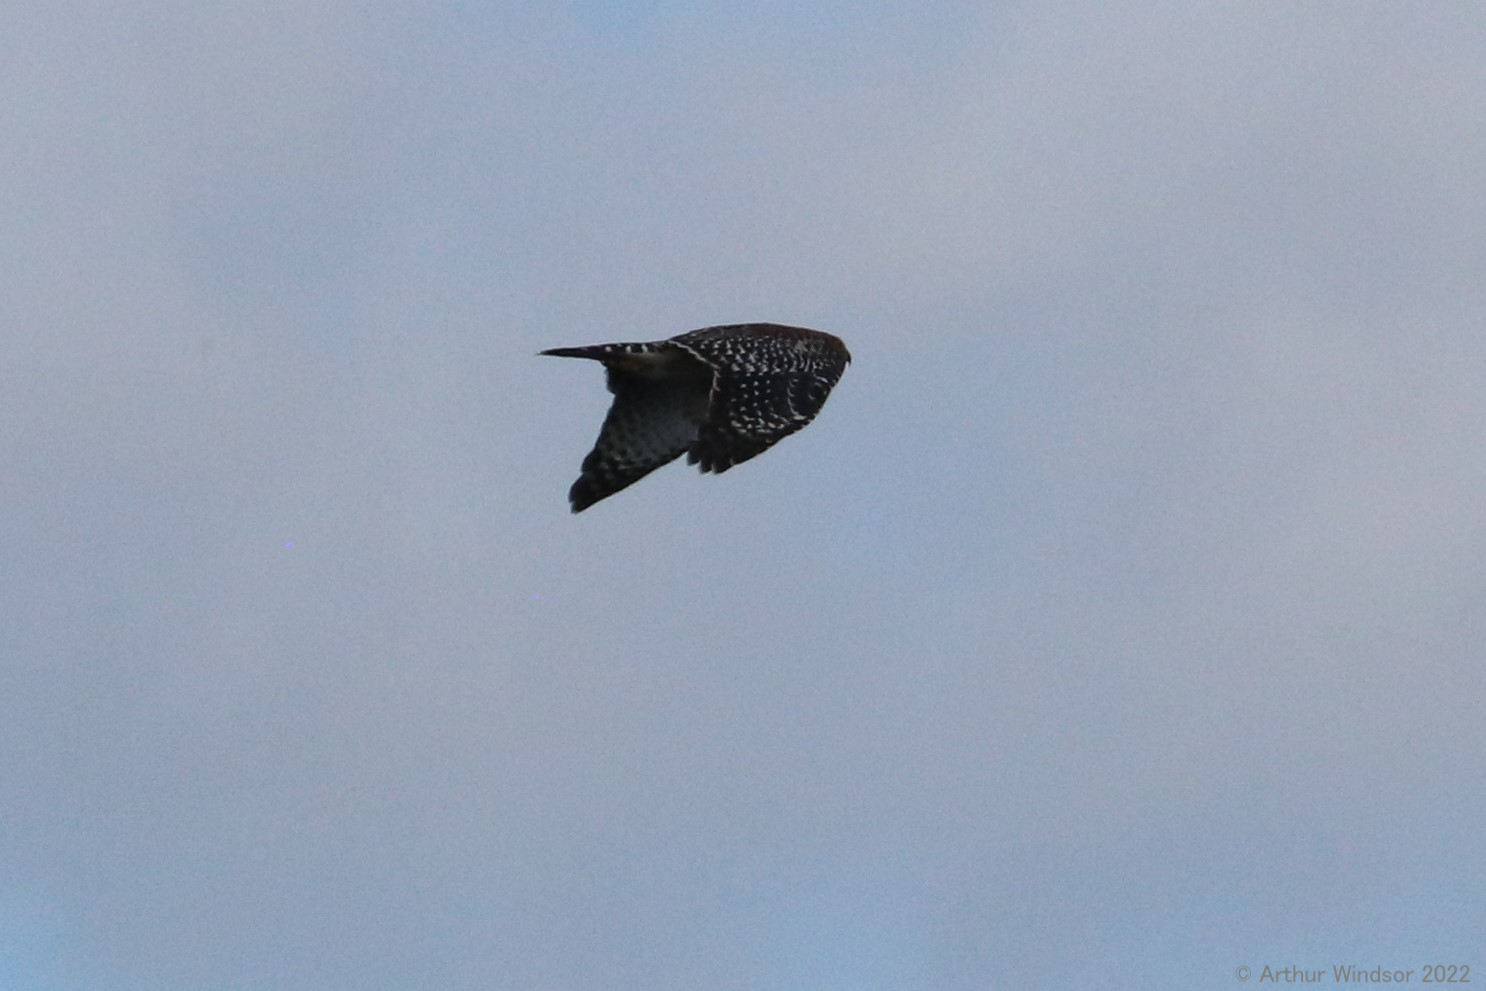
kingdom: Animalia
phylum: Chordata
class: Aves
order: Accipitriformes
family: Accipitridae
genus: Buteo
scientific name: Buteo lineatus
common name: Red-shouldered hawk
